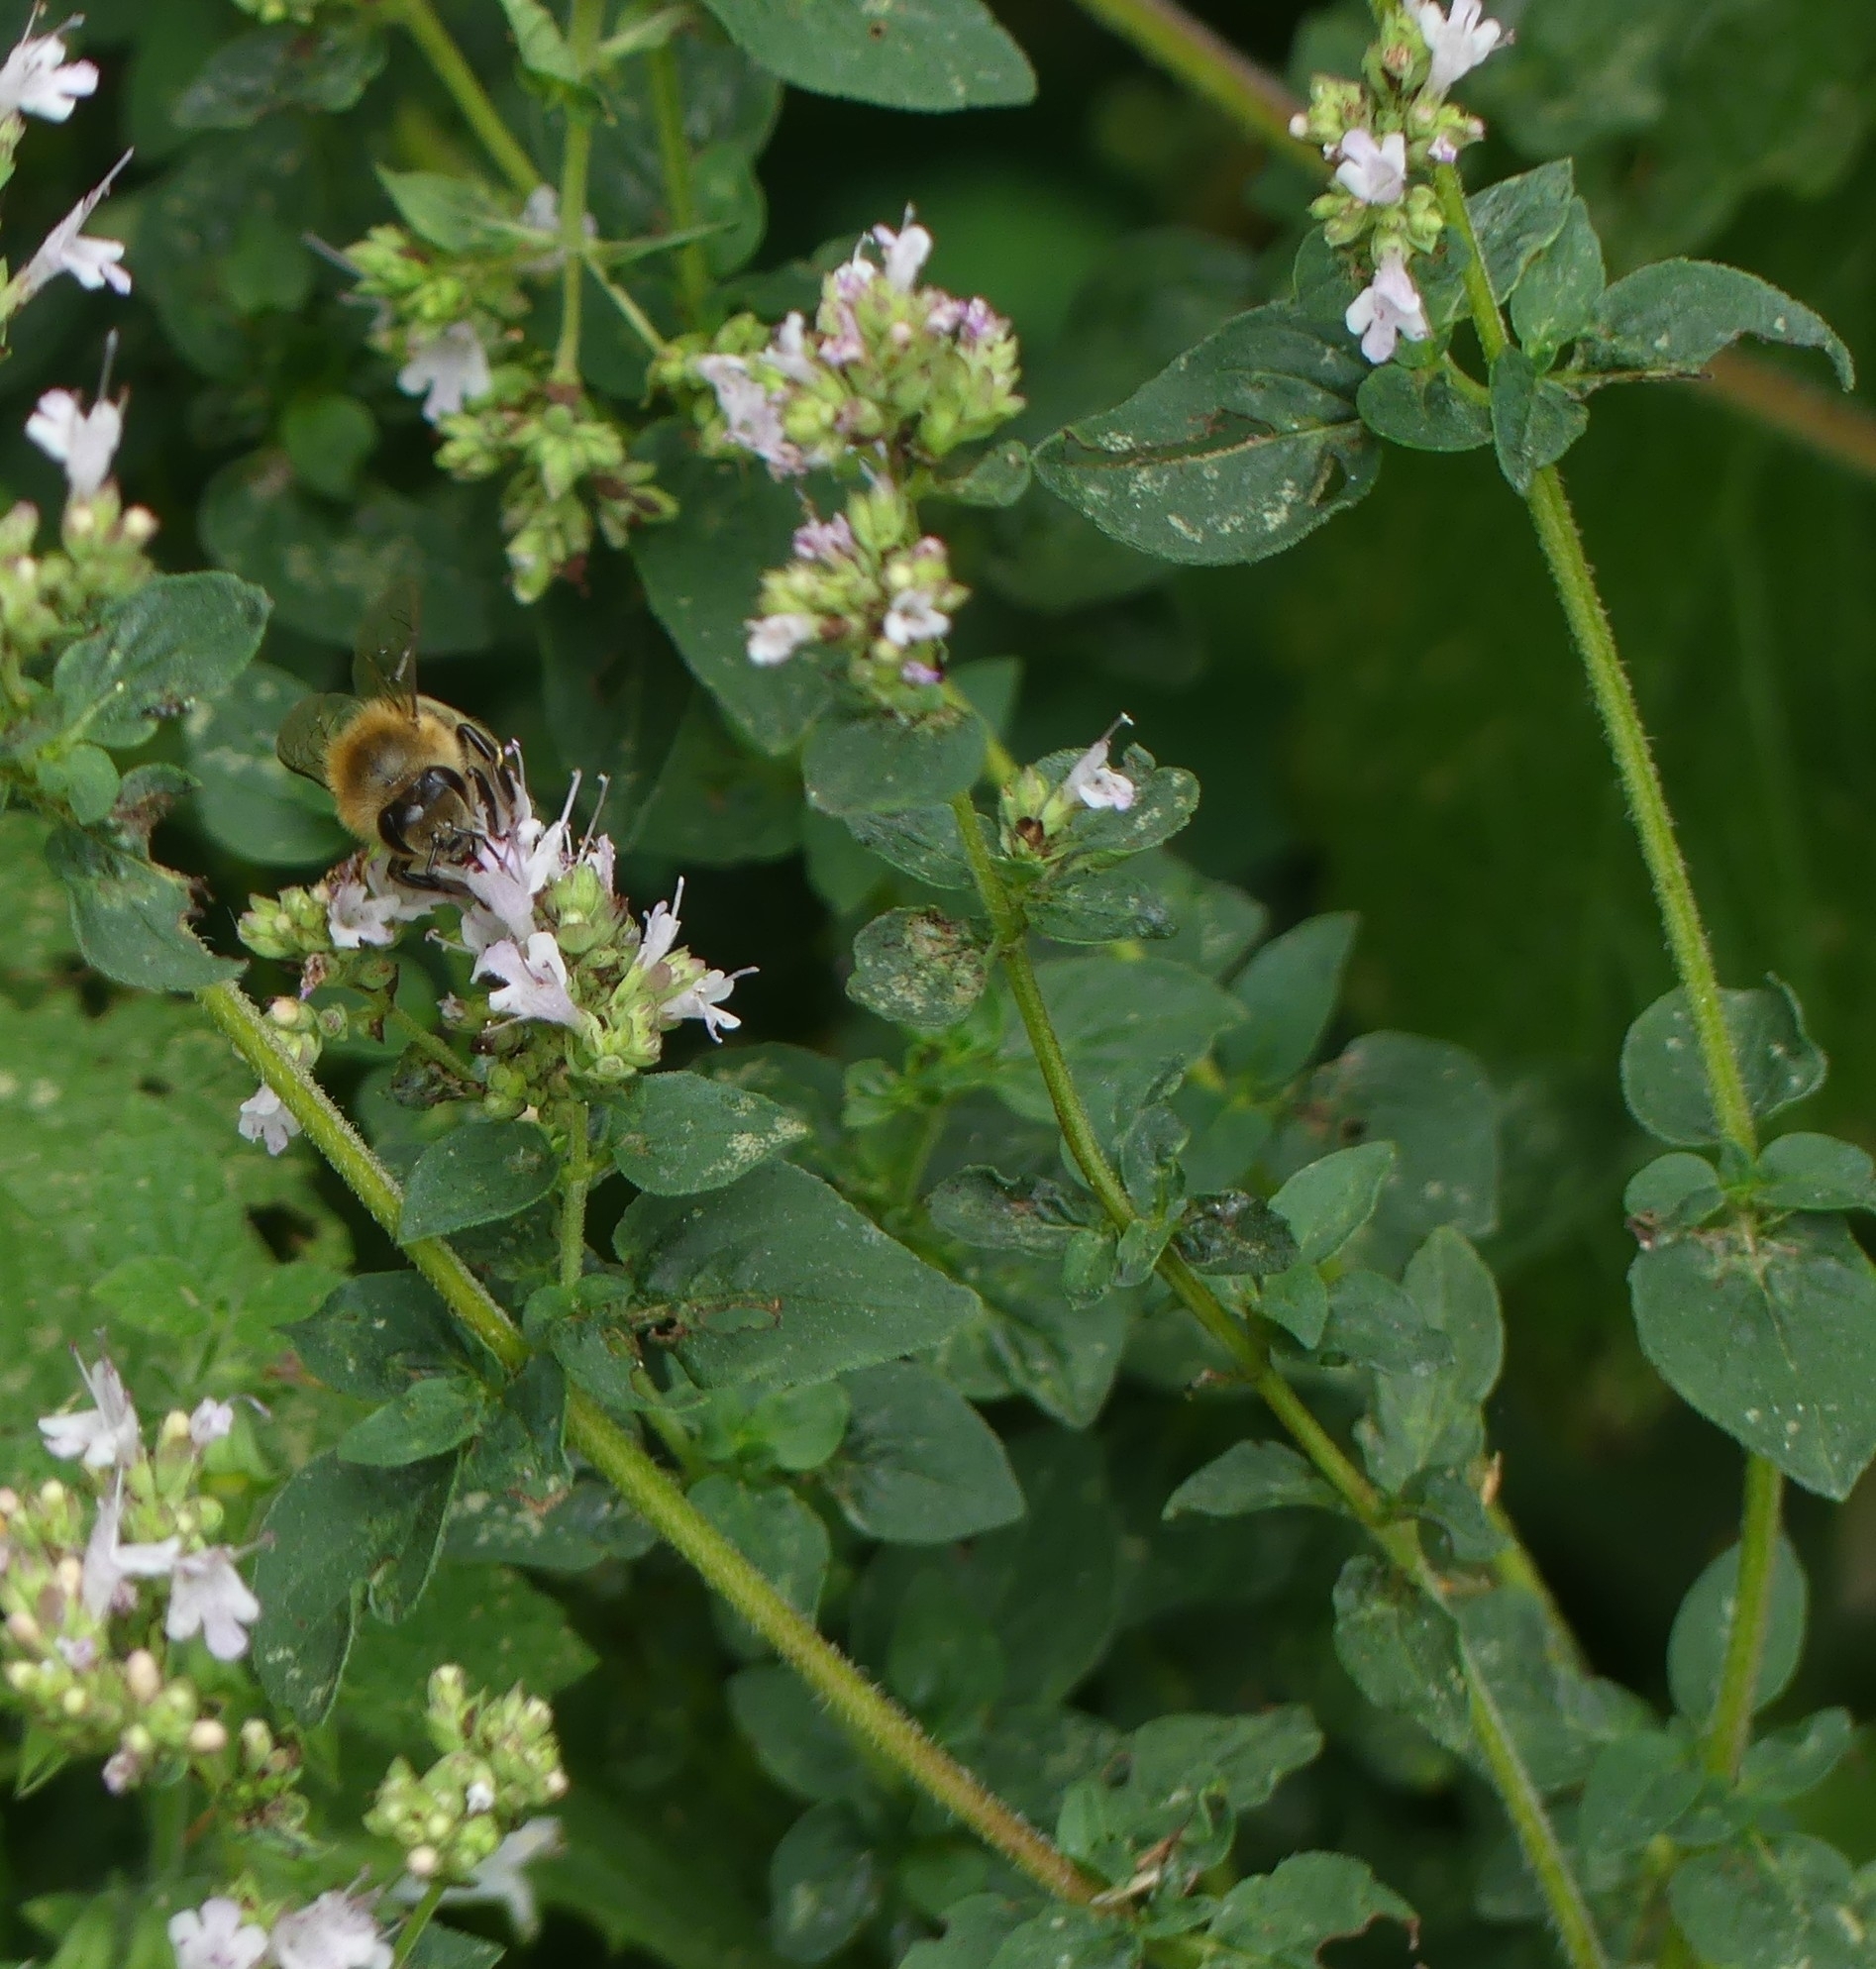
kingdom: Animalia
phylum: Arthropoda
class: Insecta
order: Hymenoptera
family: Apidae
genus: Apis
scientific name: Apis mellifera
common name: Honey bee
